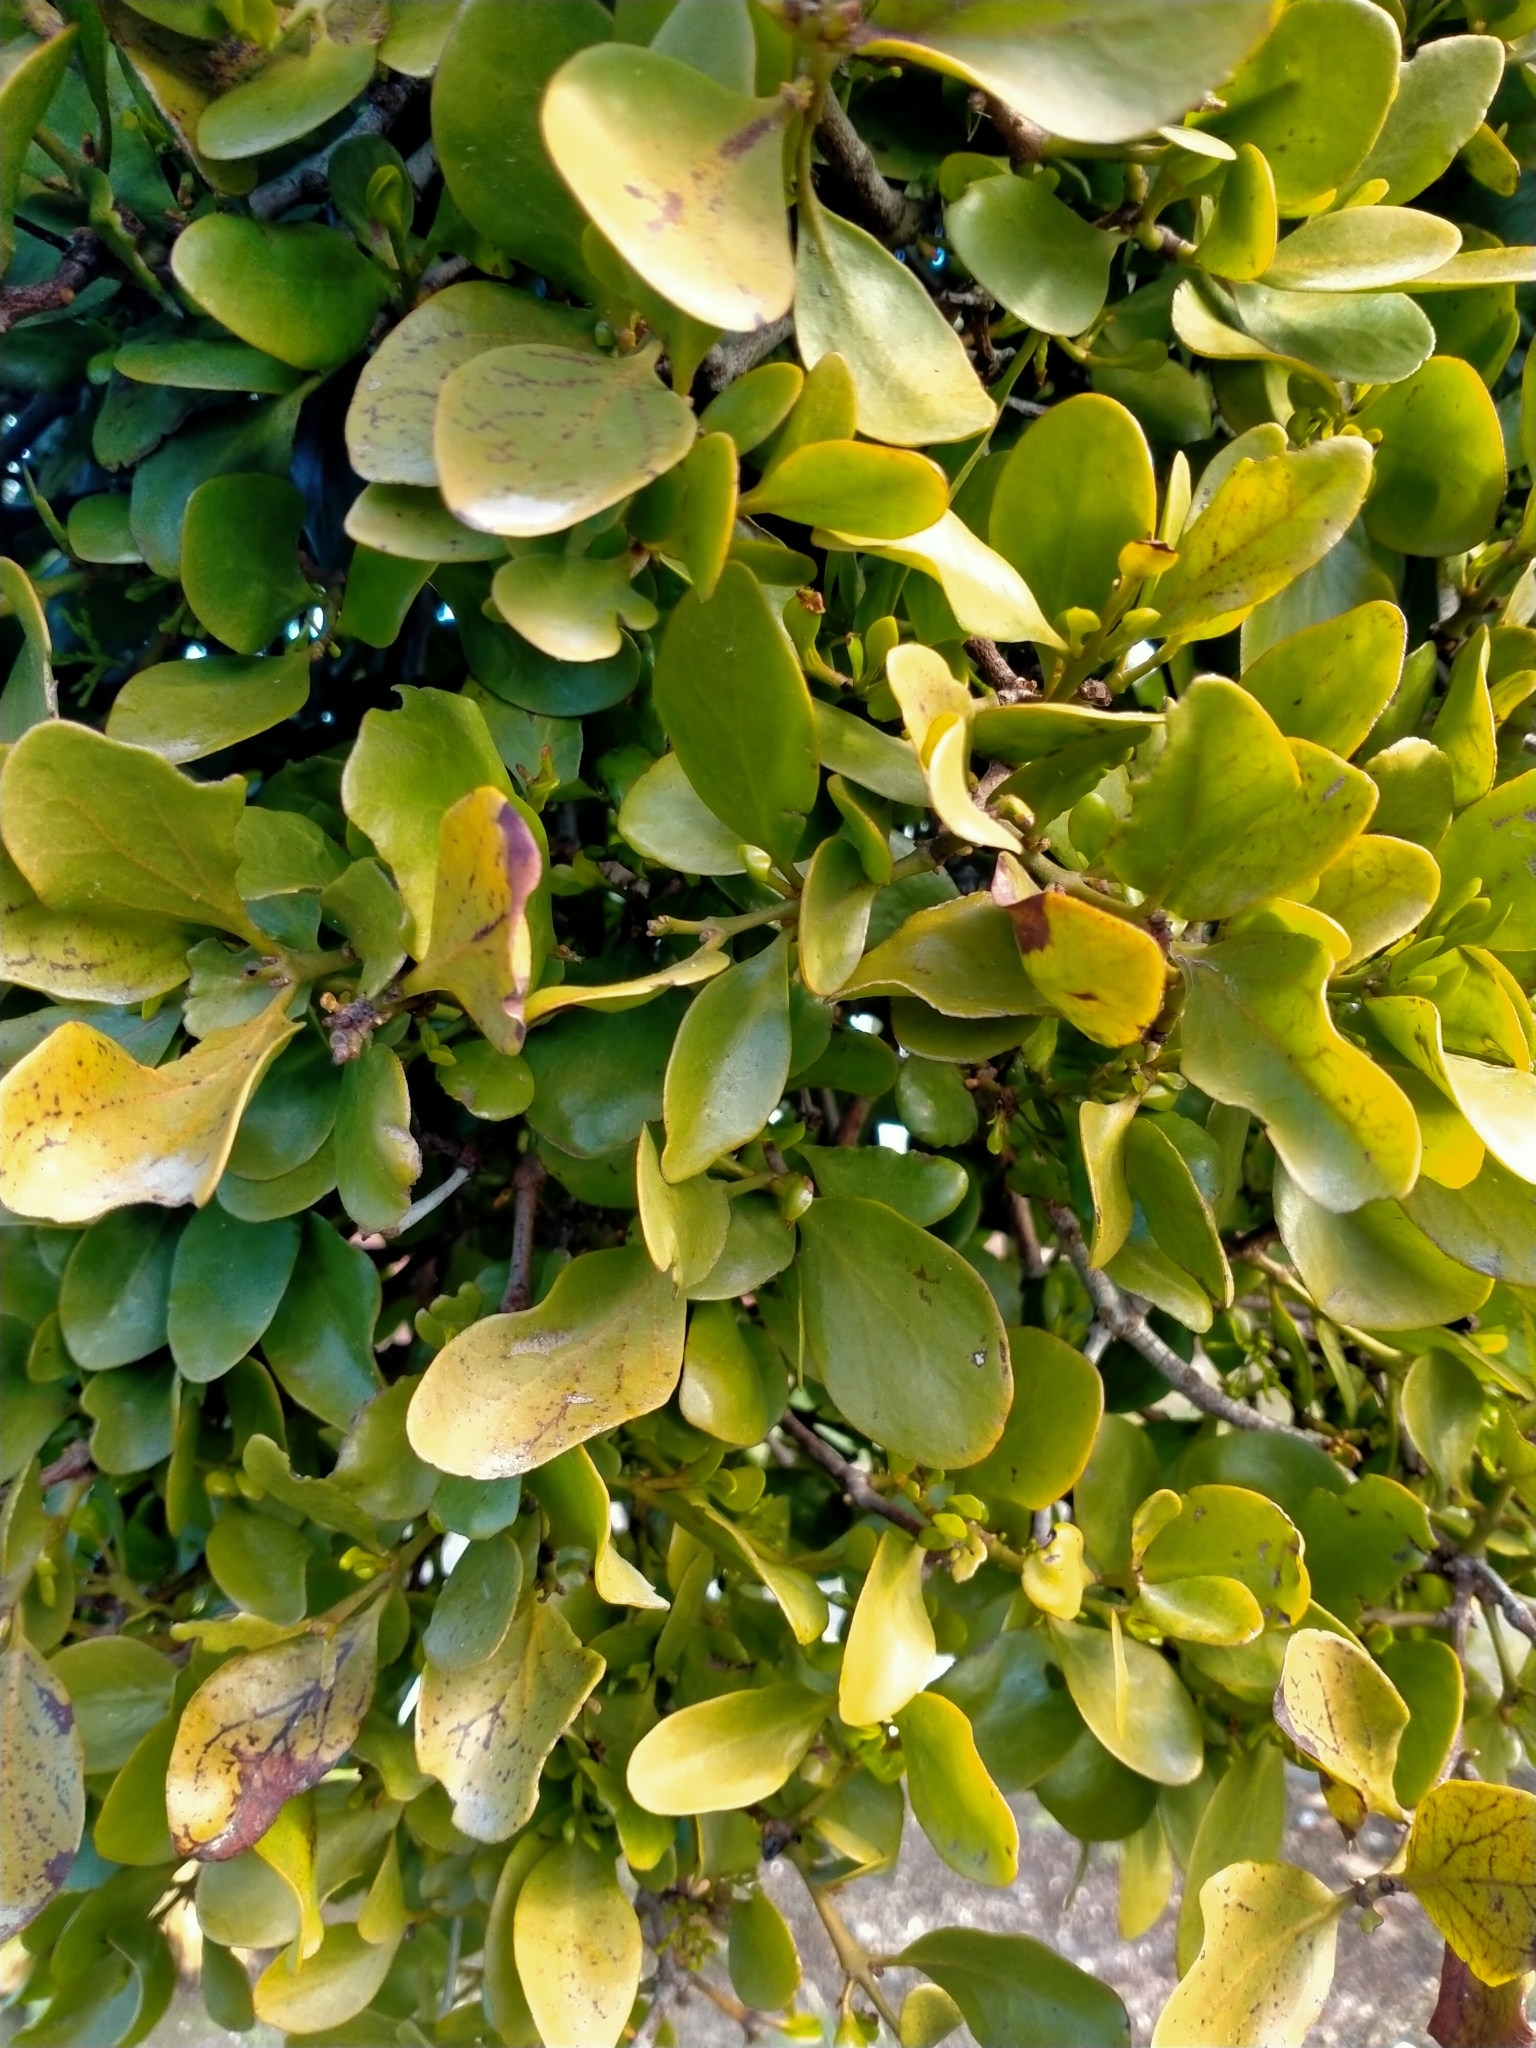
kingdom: Plantae
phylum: Tracheophyta
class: Magnoliopsida
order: Santalales
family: Loranthaceae
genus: Ileostylus
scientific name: Ileostylus micranthus
